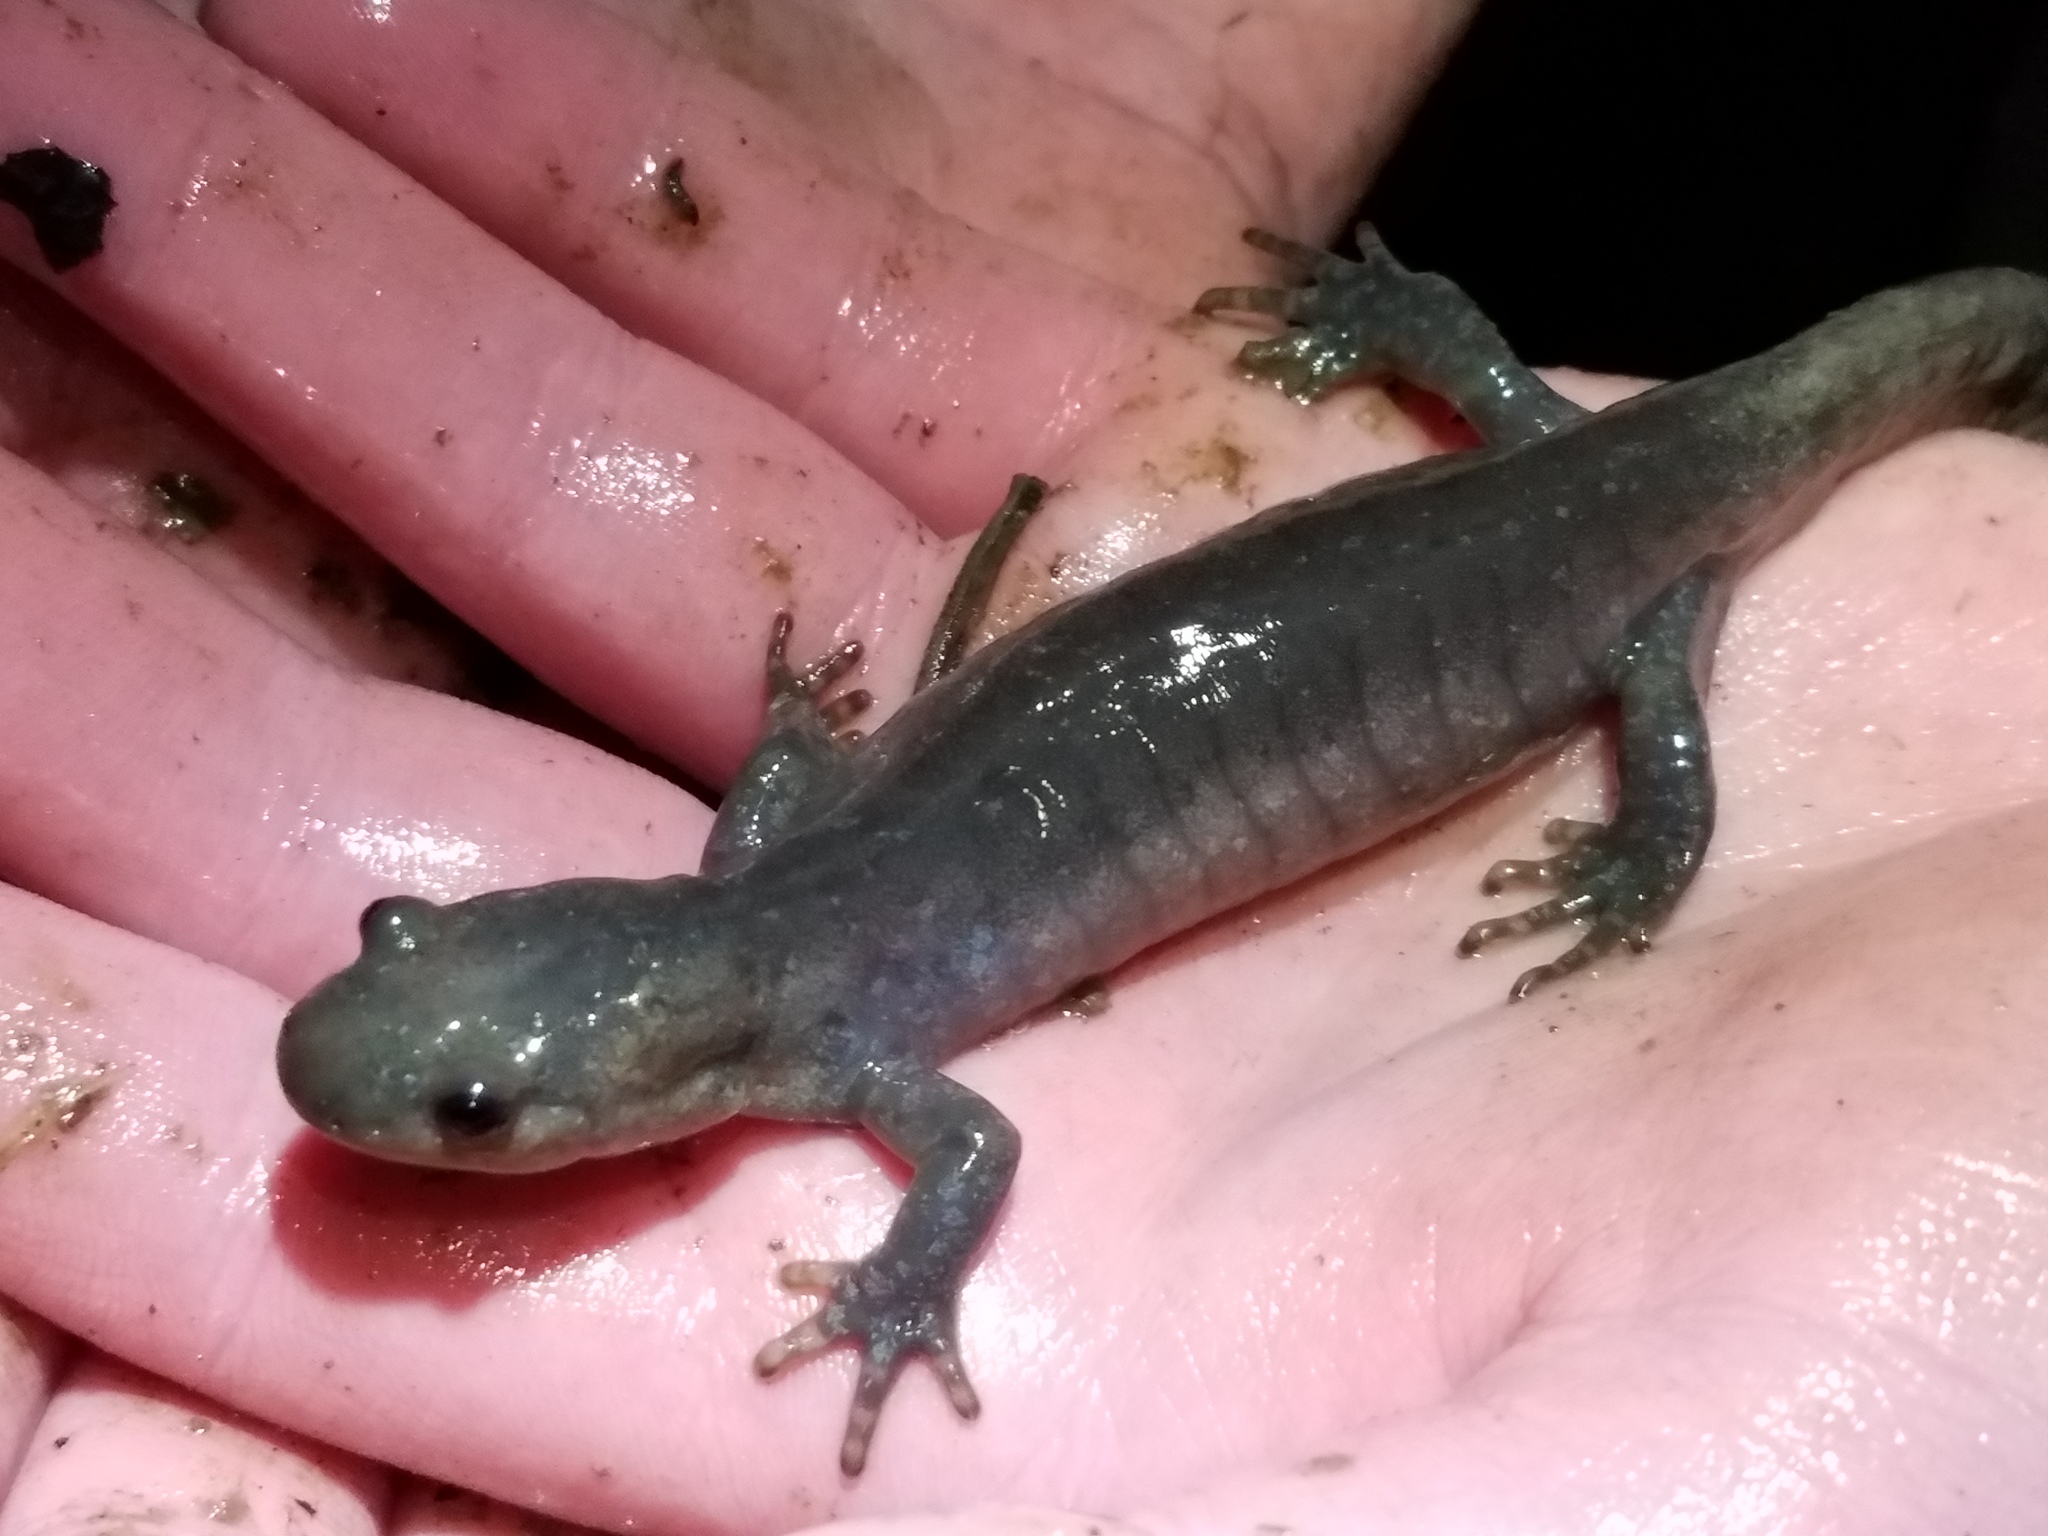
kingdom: Animalia
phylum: Chordata
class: Amphibia
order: Caudata
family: Ambystomatidae
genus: Ambystoma
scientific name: Ambystoma jeffersonianum
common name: Jefferson salamander
